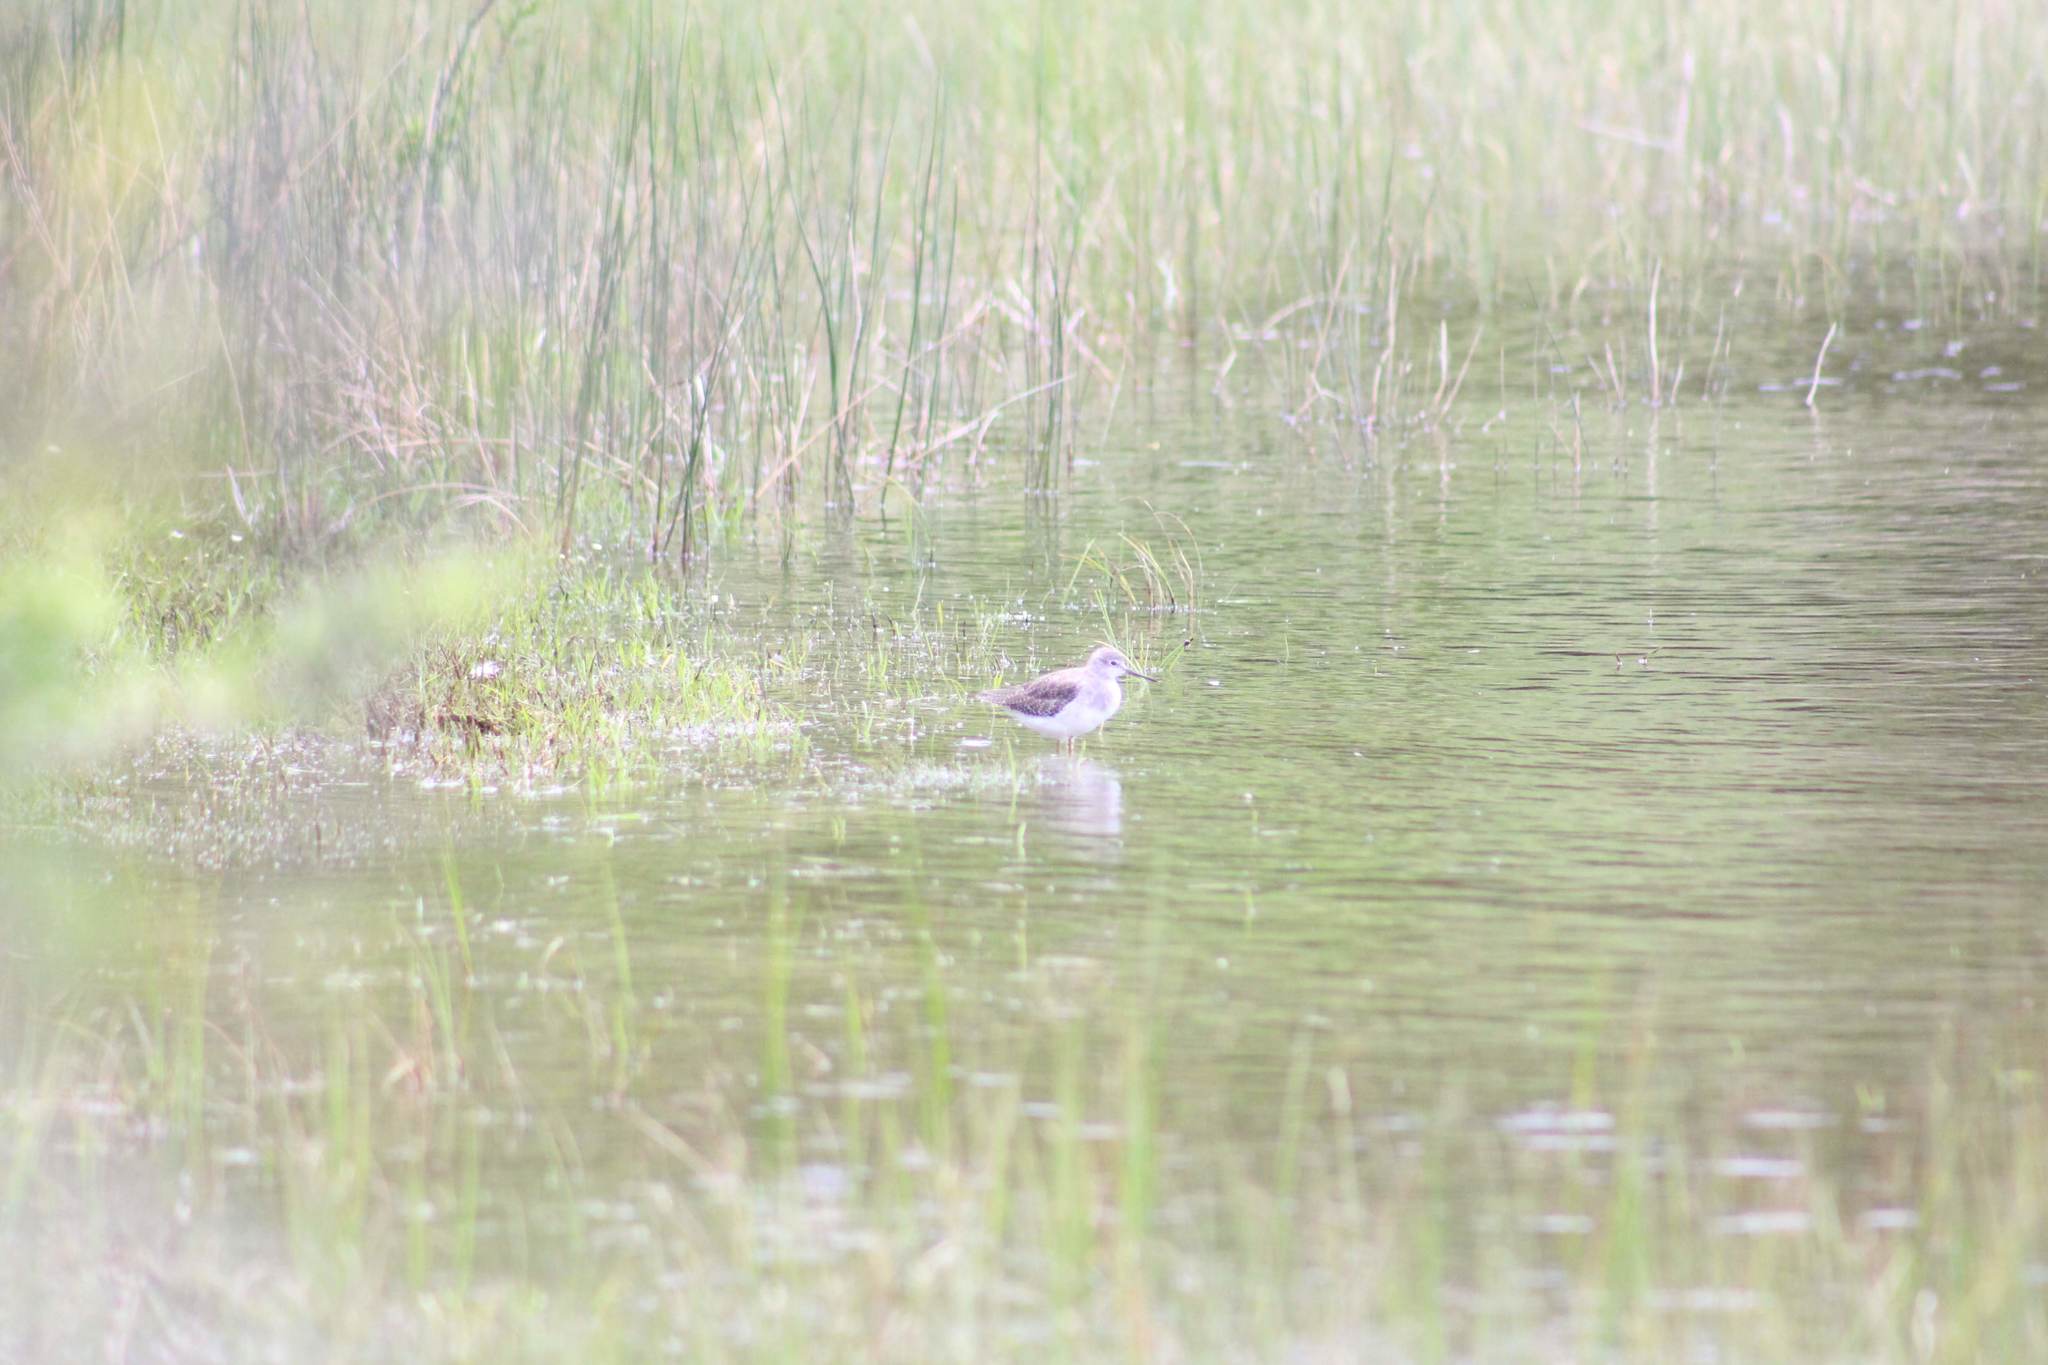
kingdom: Animalia
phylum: Chordata
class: Aves
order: Charadriiformes
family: Scolopacidae
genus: Tringa
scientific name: Tringa flavipes
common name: Lesser yellowlegs
